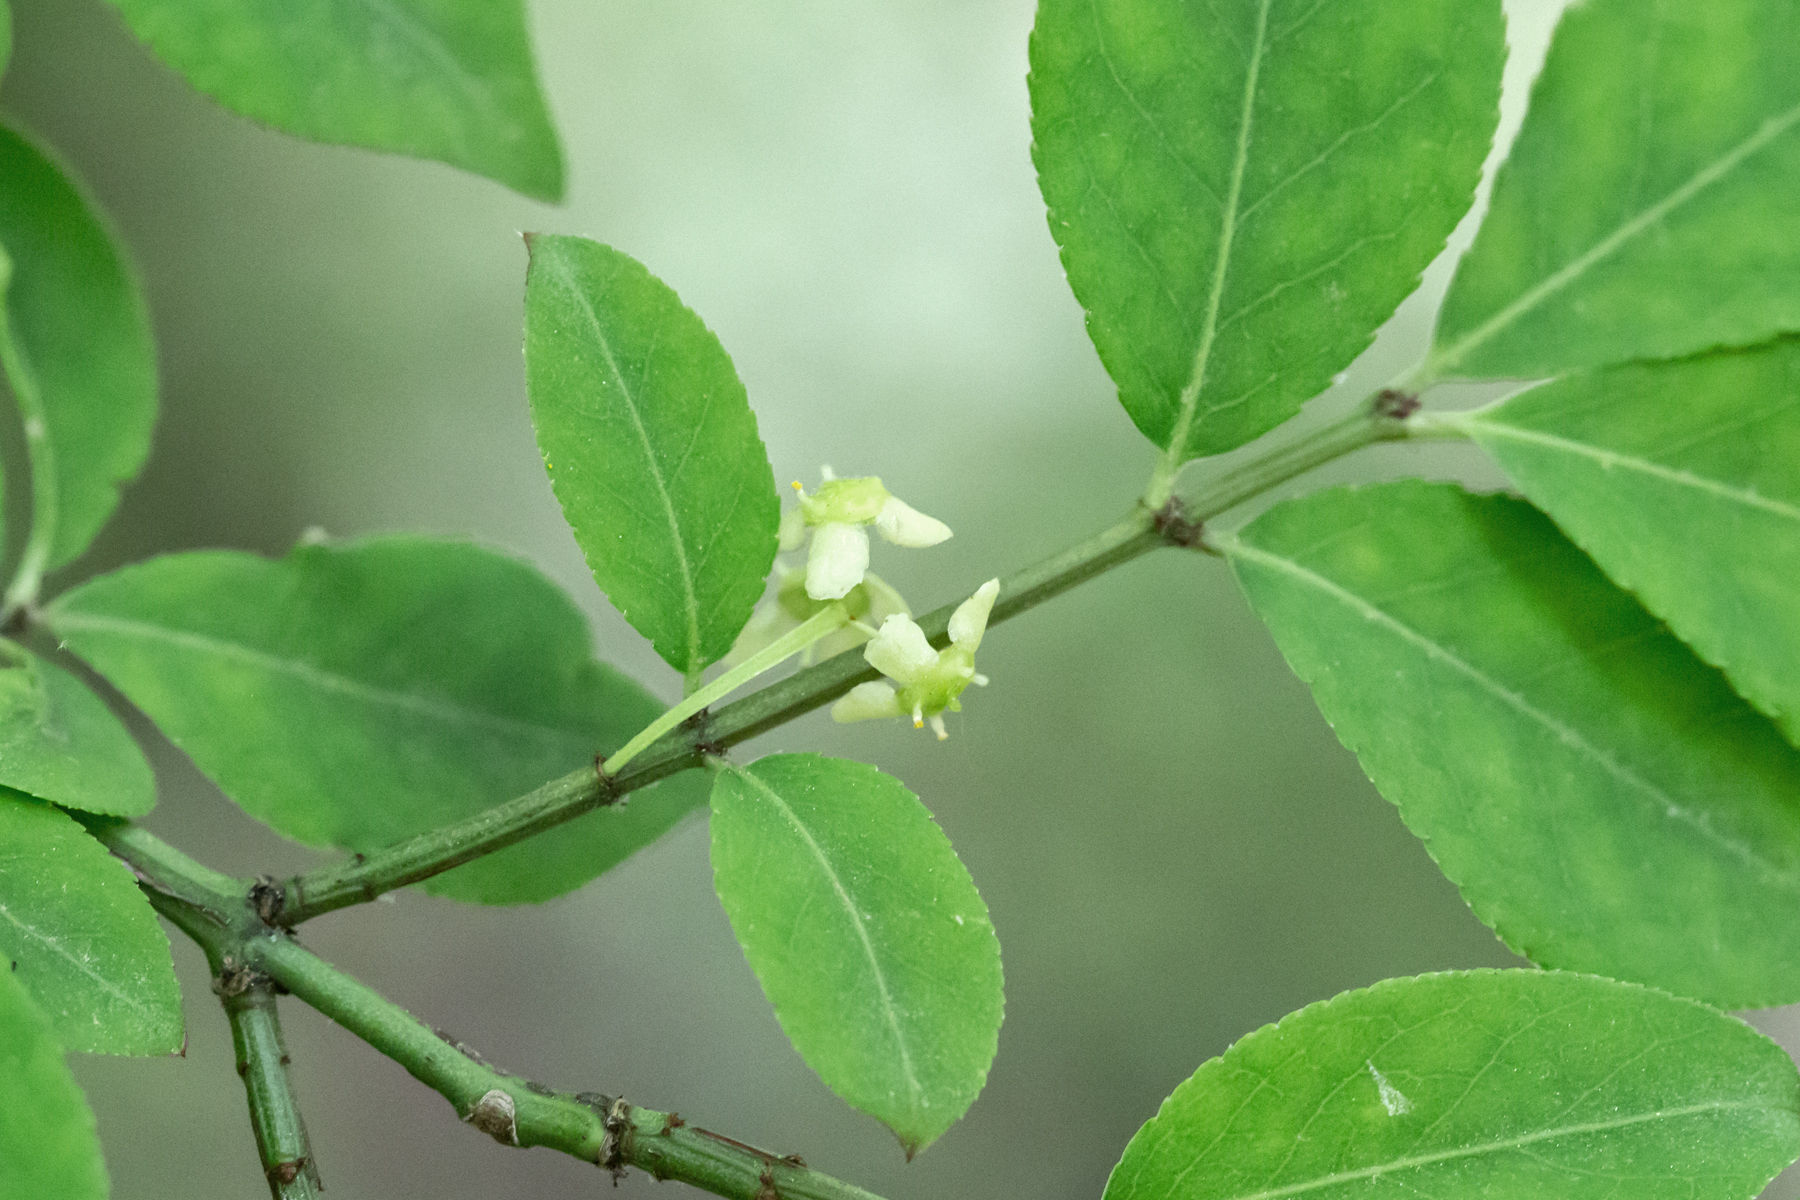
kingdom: Plantae
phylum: Tracheophyta
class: Magnoliopsida
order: Celastrales
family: Celastraceae
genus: Euonymus
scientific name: Euonymus alatus
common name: Winged euonymus
